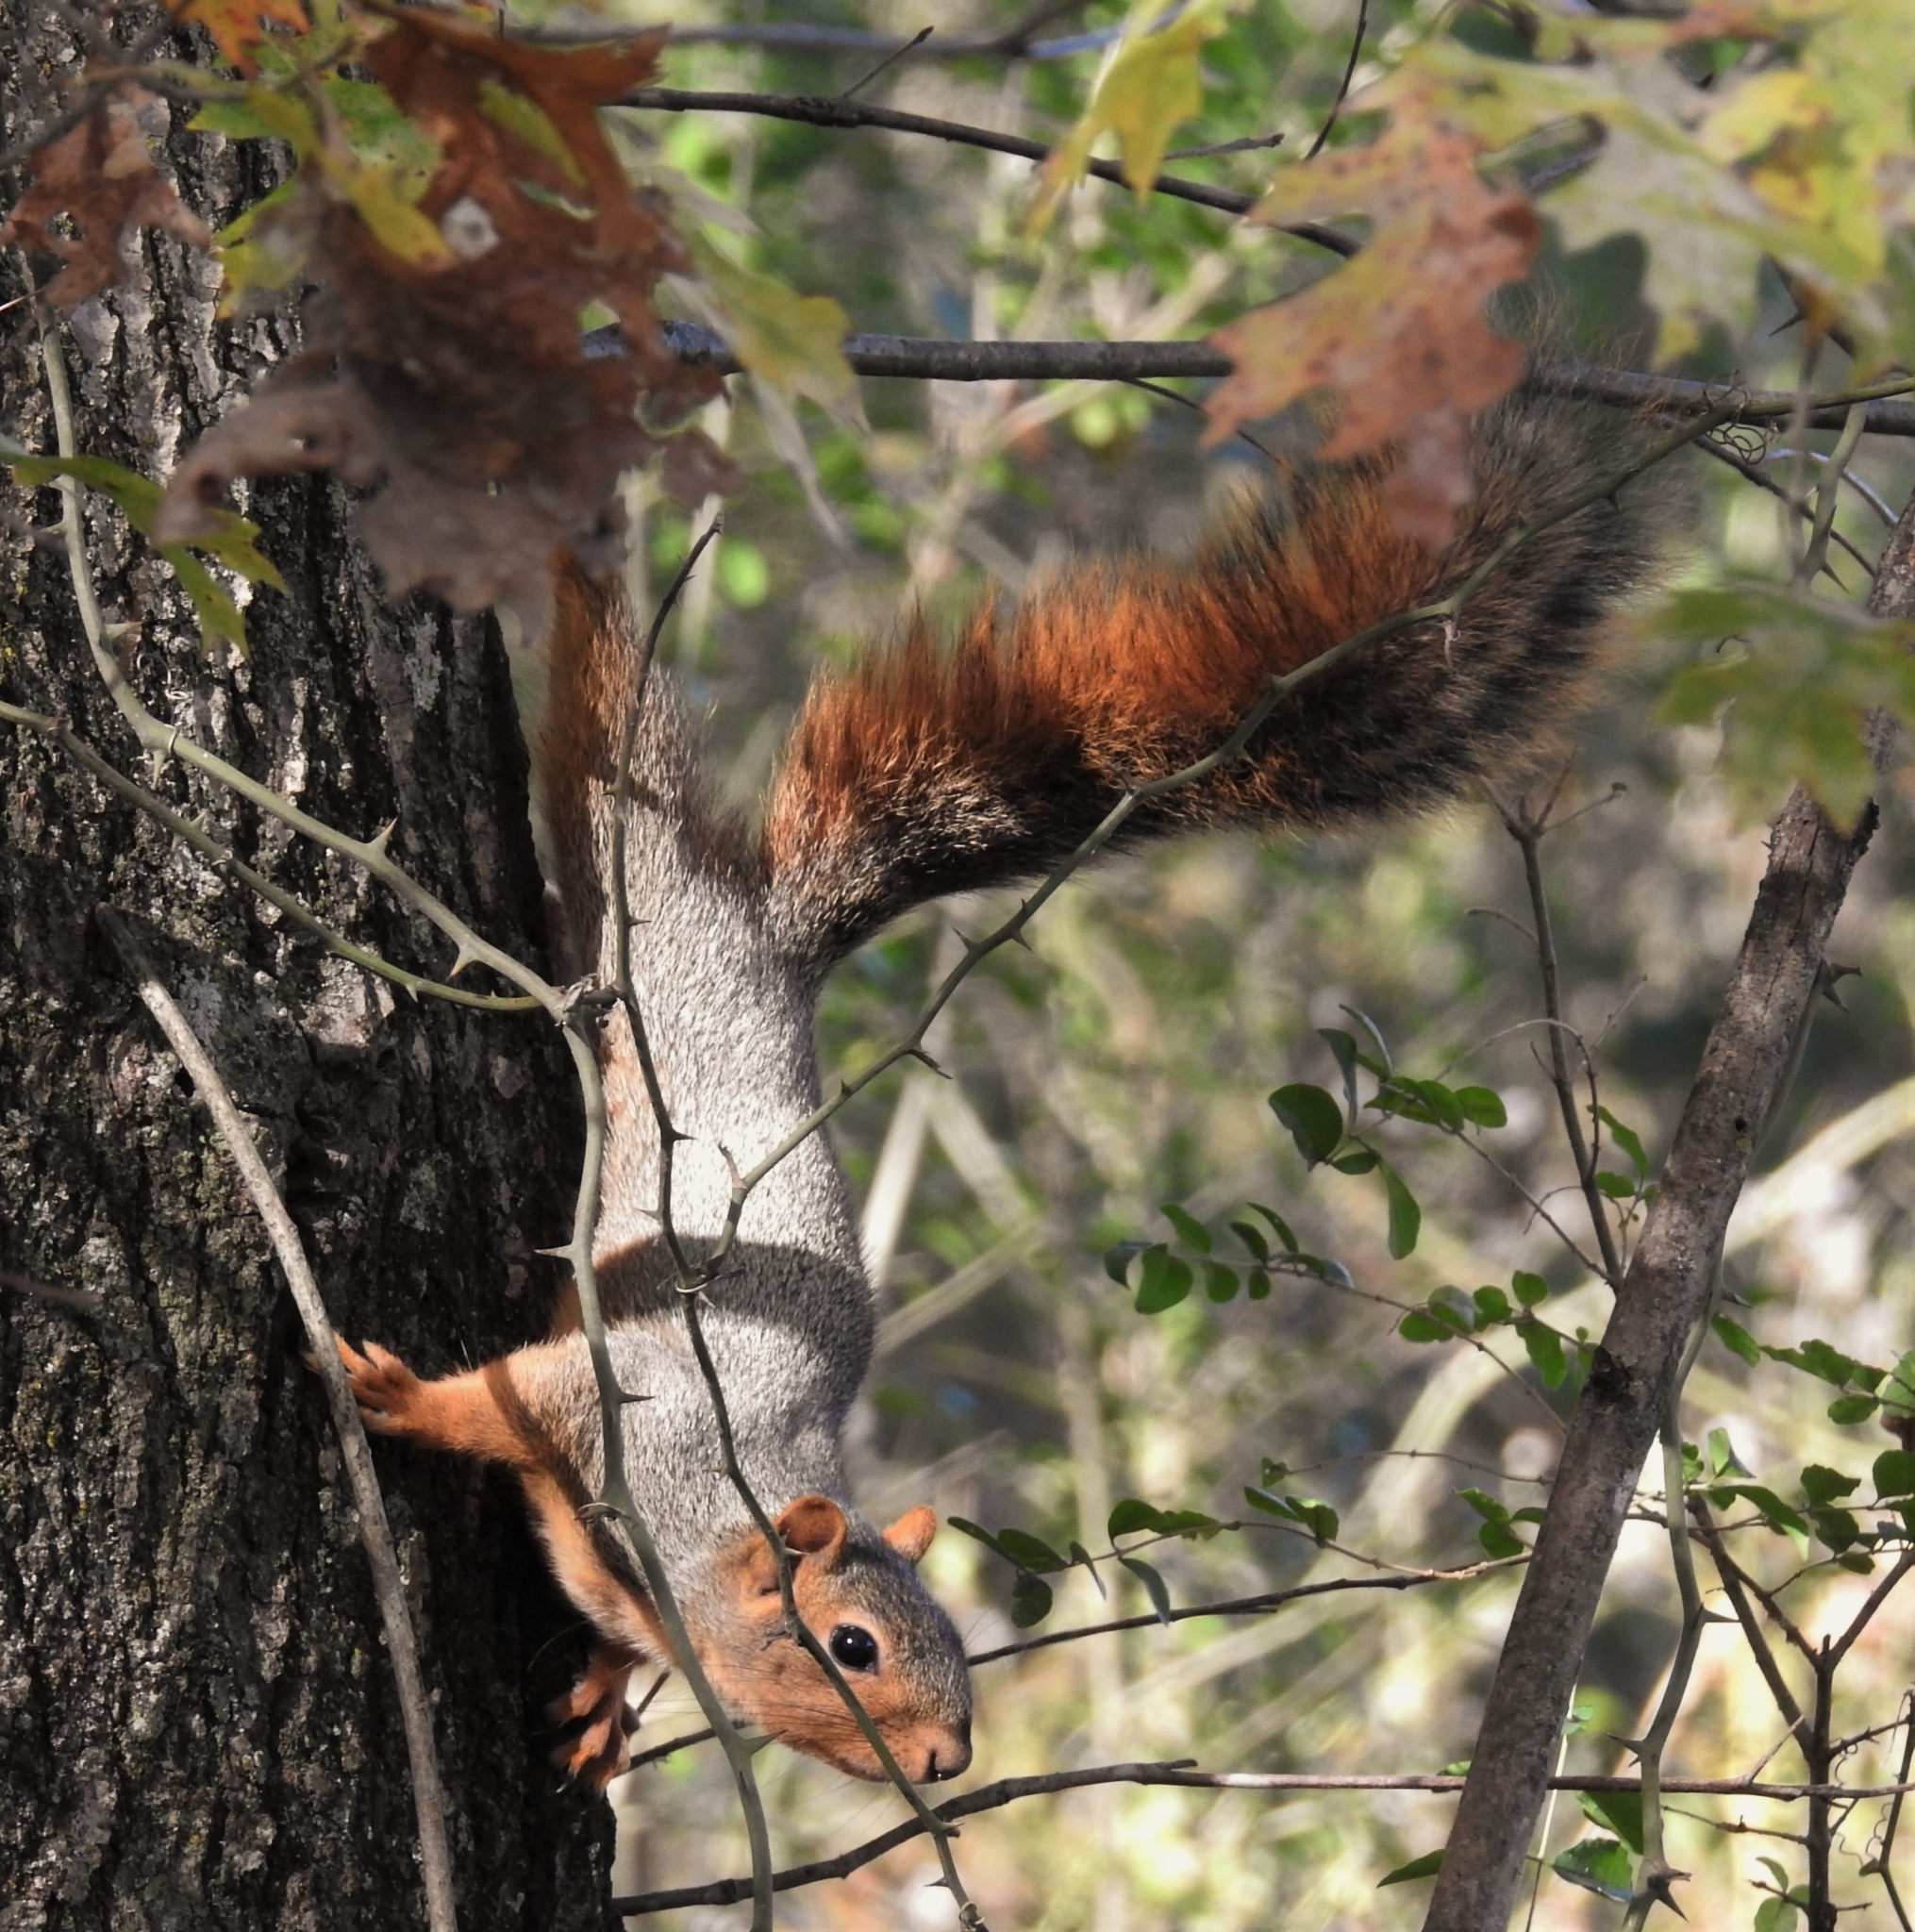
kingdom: Animalia
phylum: Chordata
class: Mammalia
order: Rodentia
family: Sciuridae
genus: Sciurus
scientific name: Sciurus niger
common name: Fox squirrel
